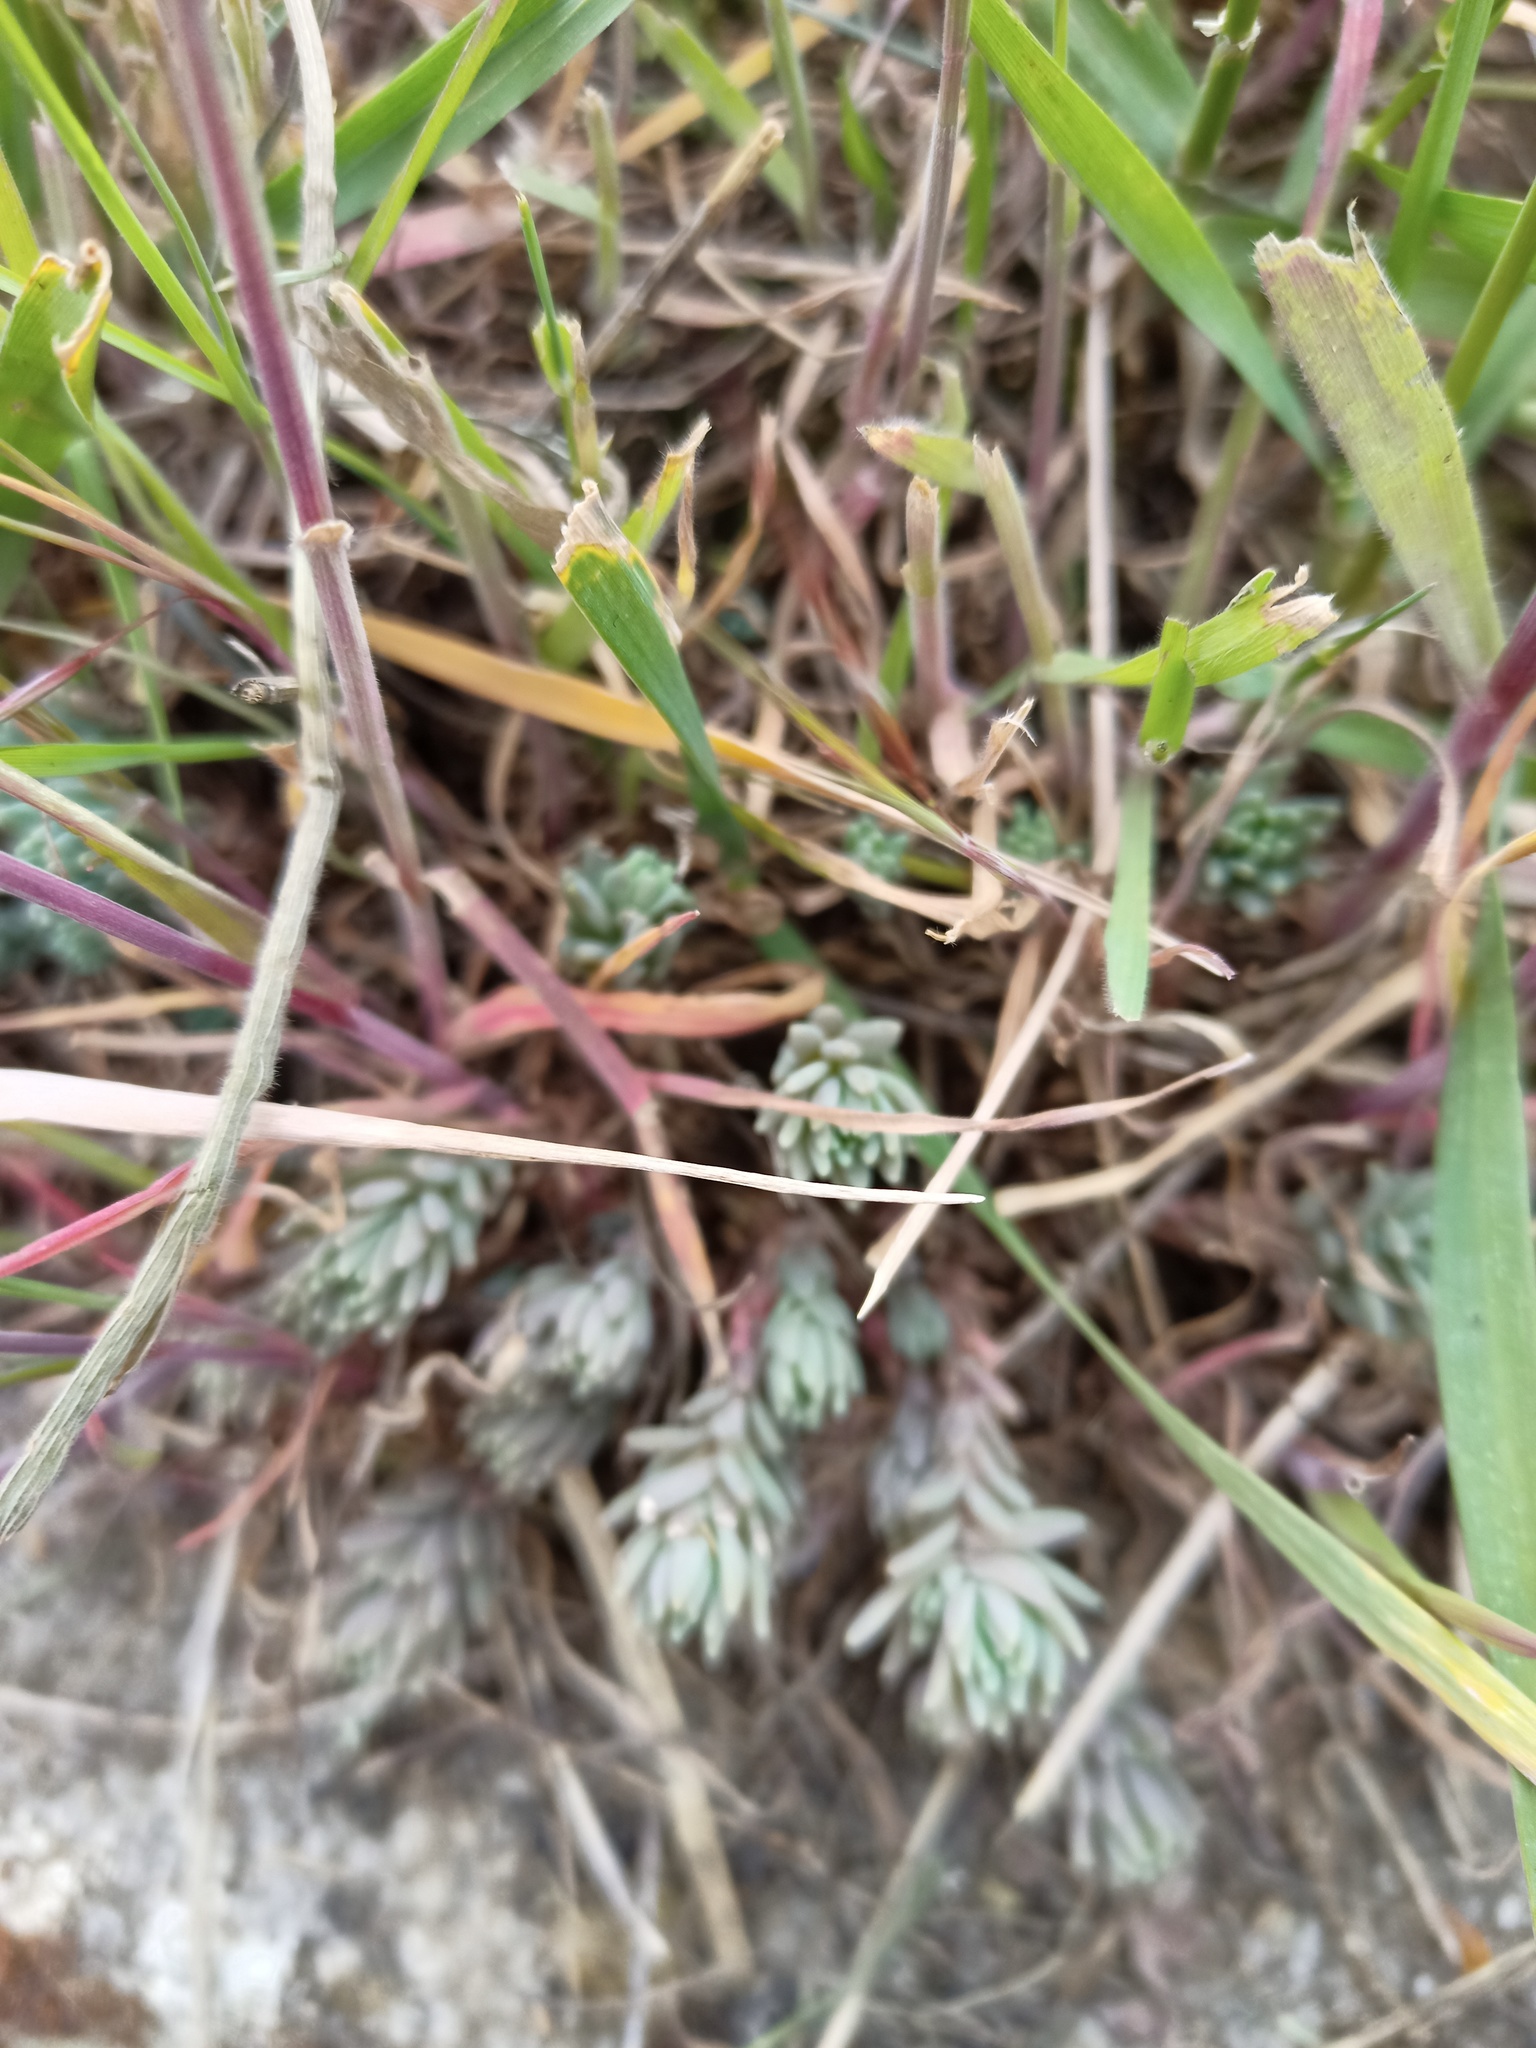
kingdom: Plantae
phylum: Tracheophyta
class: Magnoliopsida
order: Saxifragales
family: Crassulaceae
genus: Petrosedum
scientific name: Petrosedum rupestre
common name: Jenny's stonecrop
